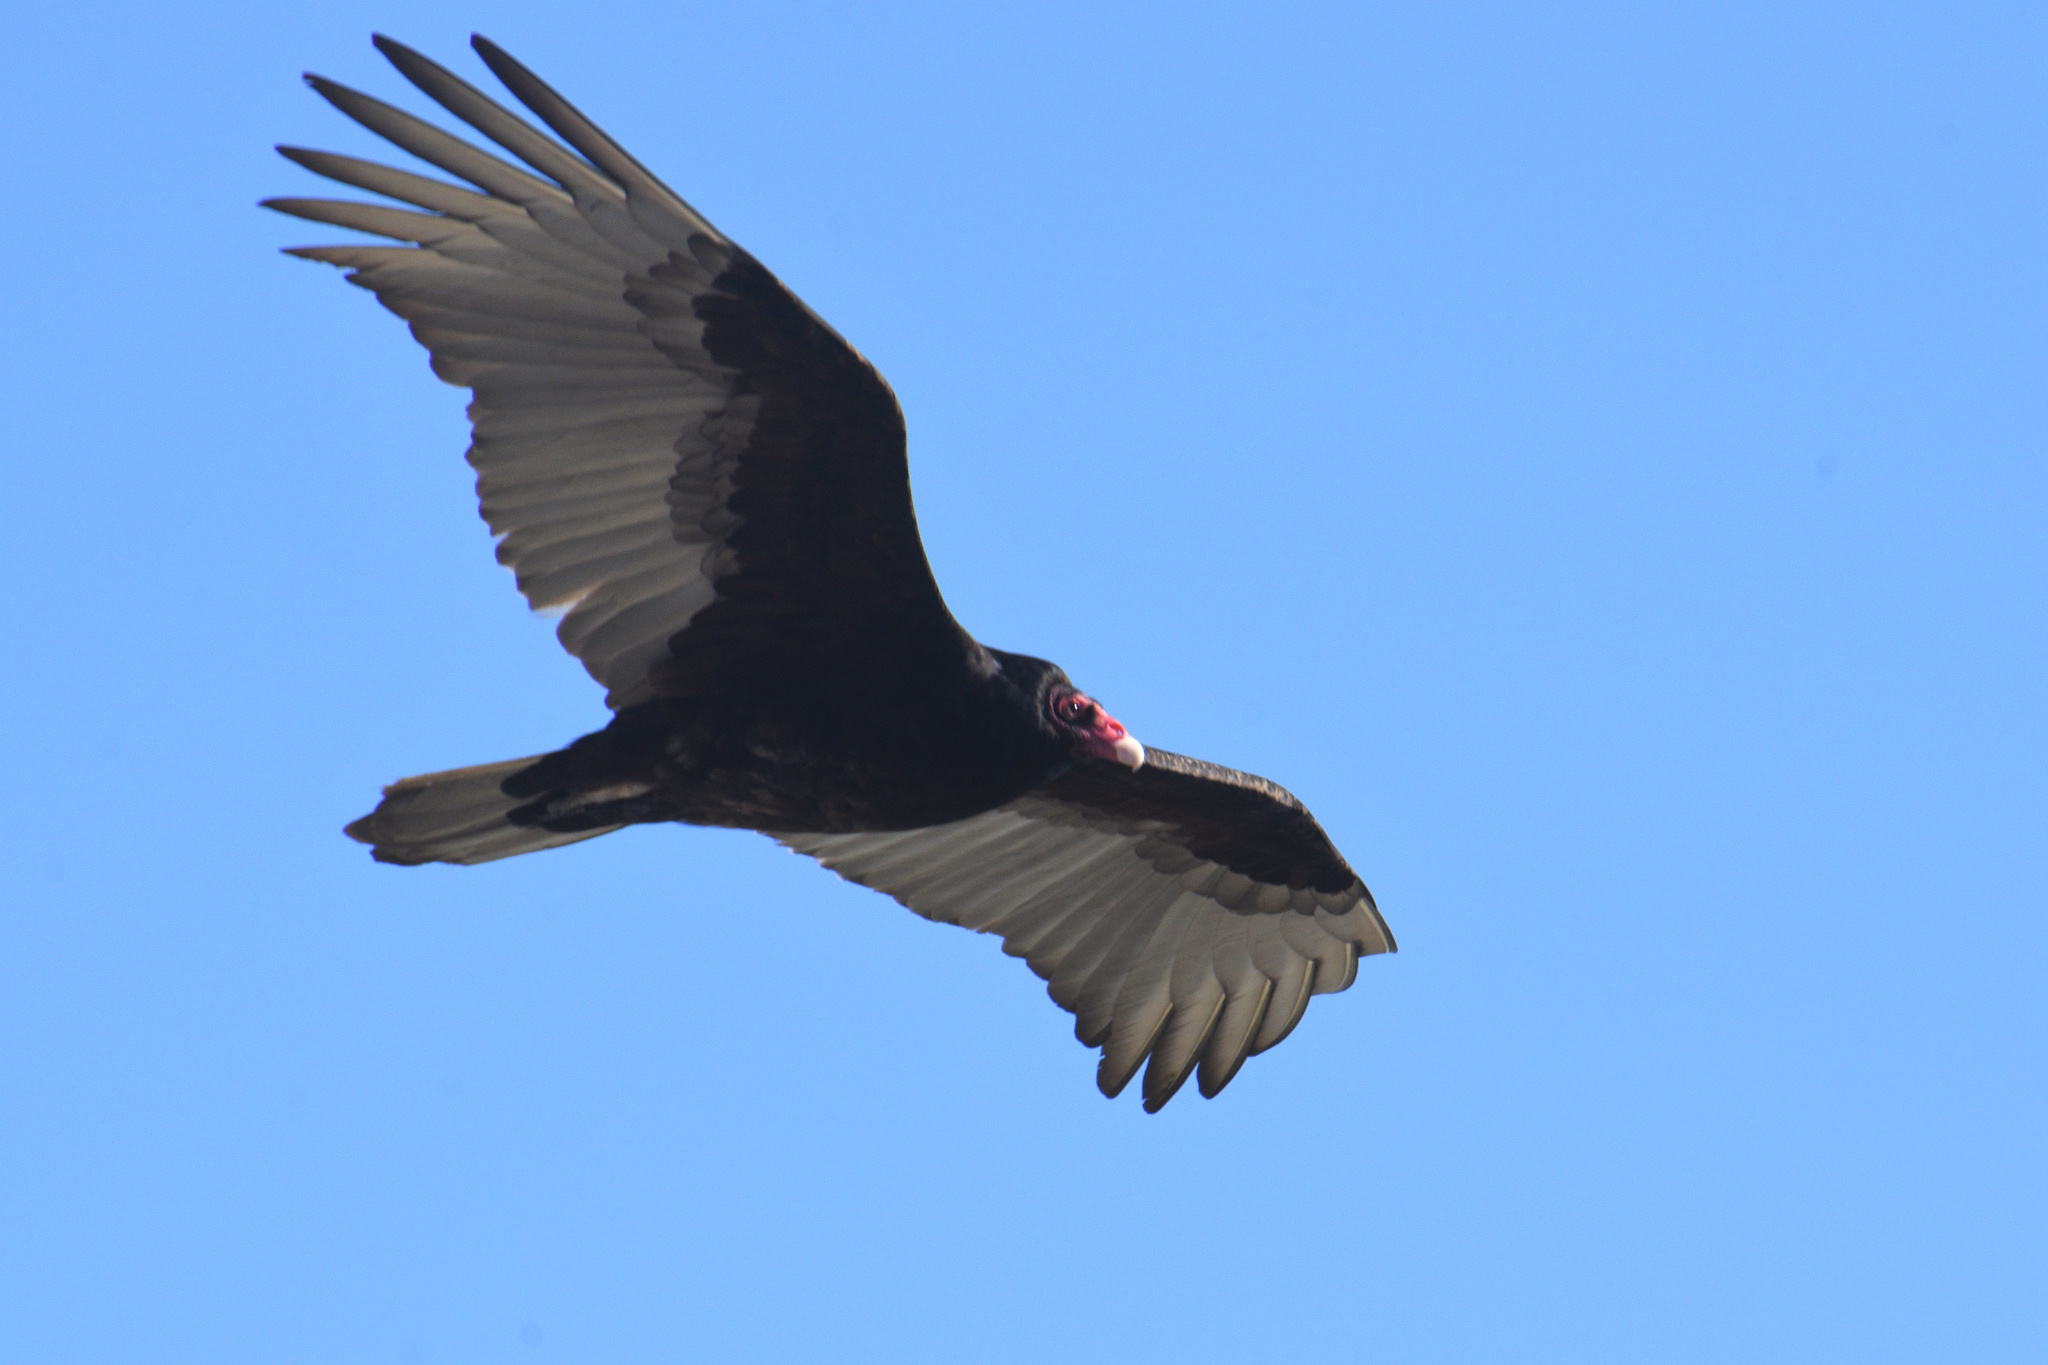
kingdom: Animalia
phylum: Chordata
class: Aves
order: Accipitriformes
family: Cathartidae
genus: Cathartes
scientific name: Cathartes aura
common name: Turkey vulture
